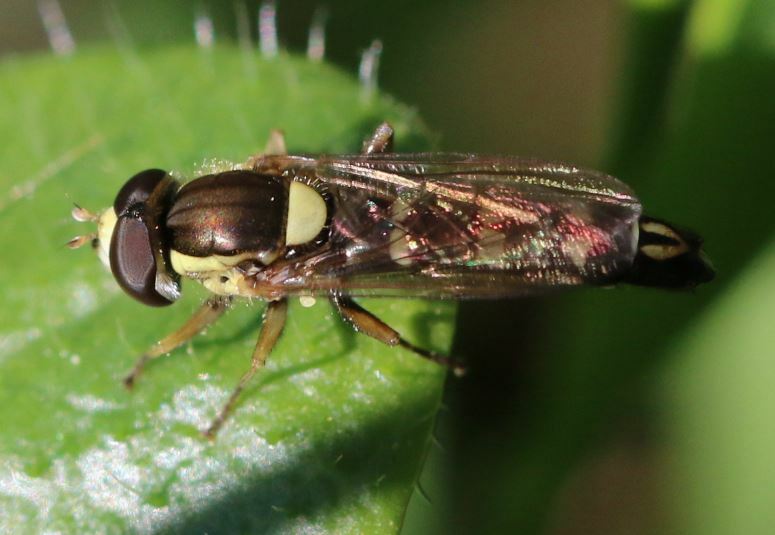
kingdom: Animalia
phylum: Arthropoda
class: Insecta
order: Diptera
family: Syrphidae
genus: Sphaerophoria
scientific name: Sphaerophoria scripta
